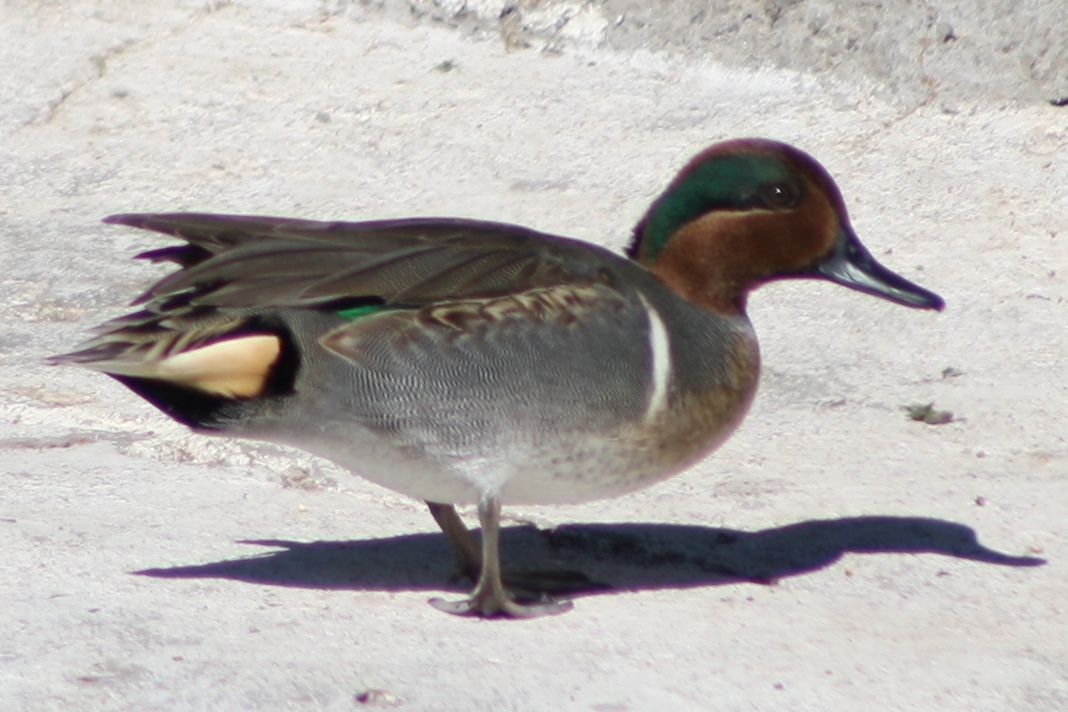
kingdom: Animalia
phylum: Chordata
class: Aves
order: Anseriformes
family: Anatidae
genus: Anas
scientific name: Anas crecca
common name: Eurasian teal
